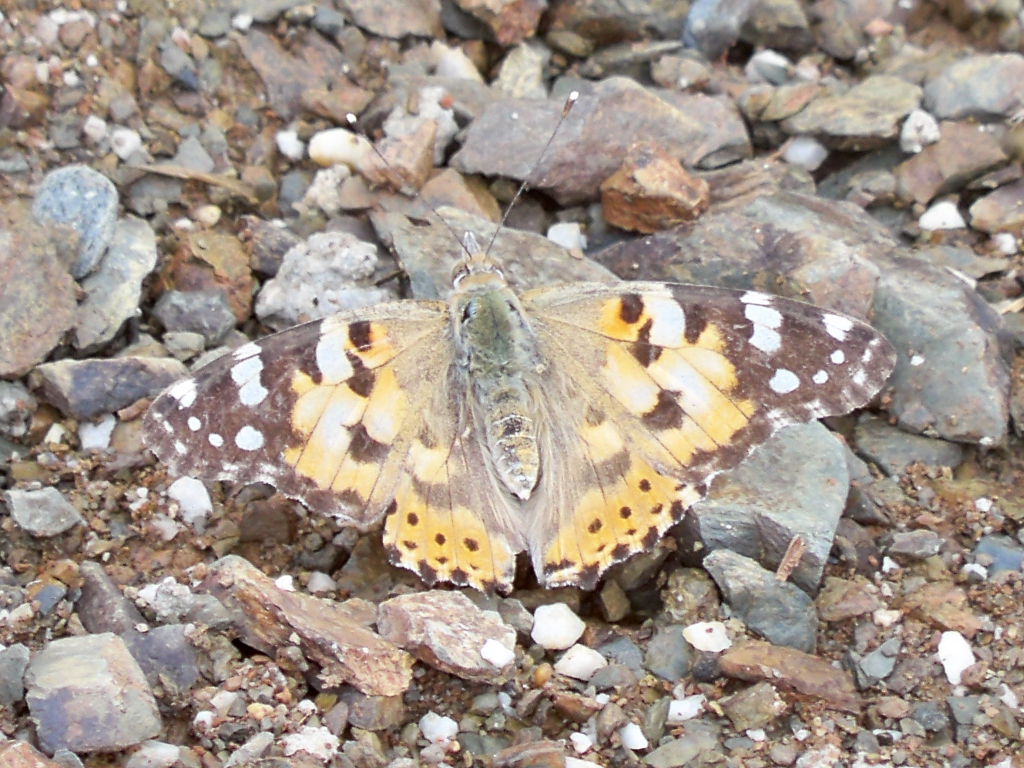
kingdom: Animalia
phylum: Arthropoda
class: Insecta
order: Lepidoptera
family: Nymphalidae
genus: Vanessa
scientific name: Vanessa cardui
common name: Painted lady
